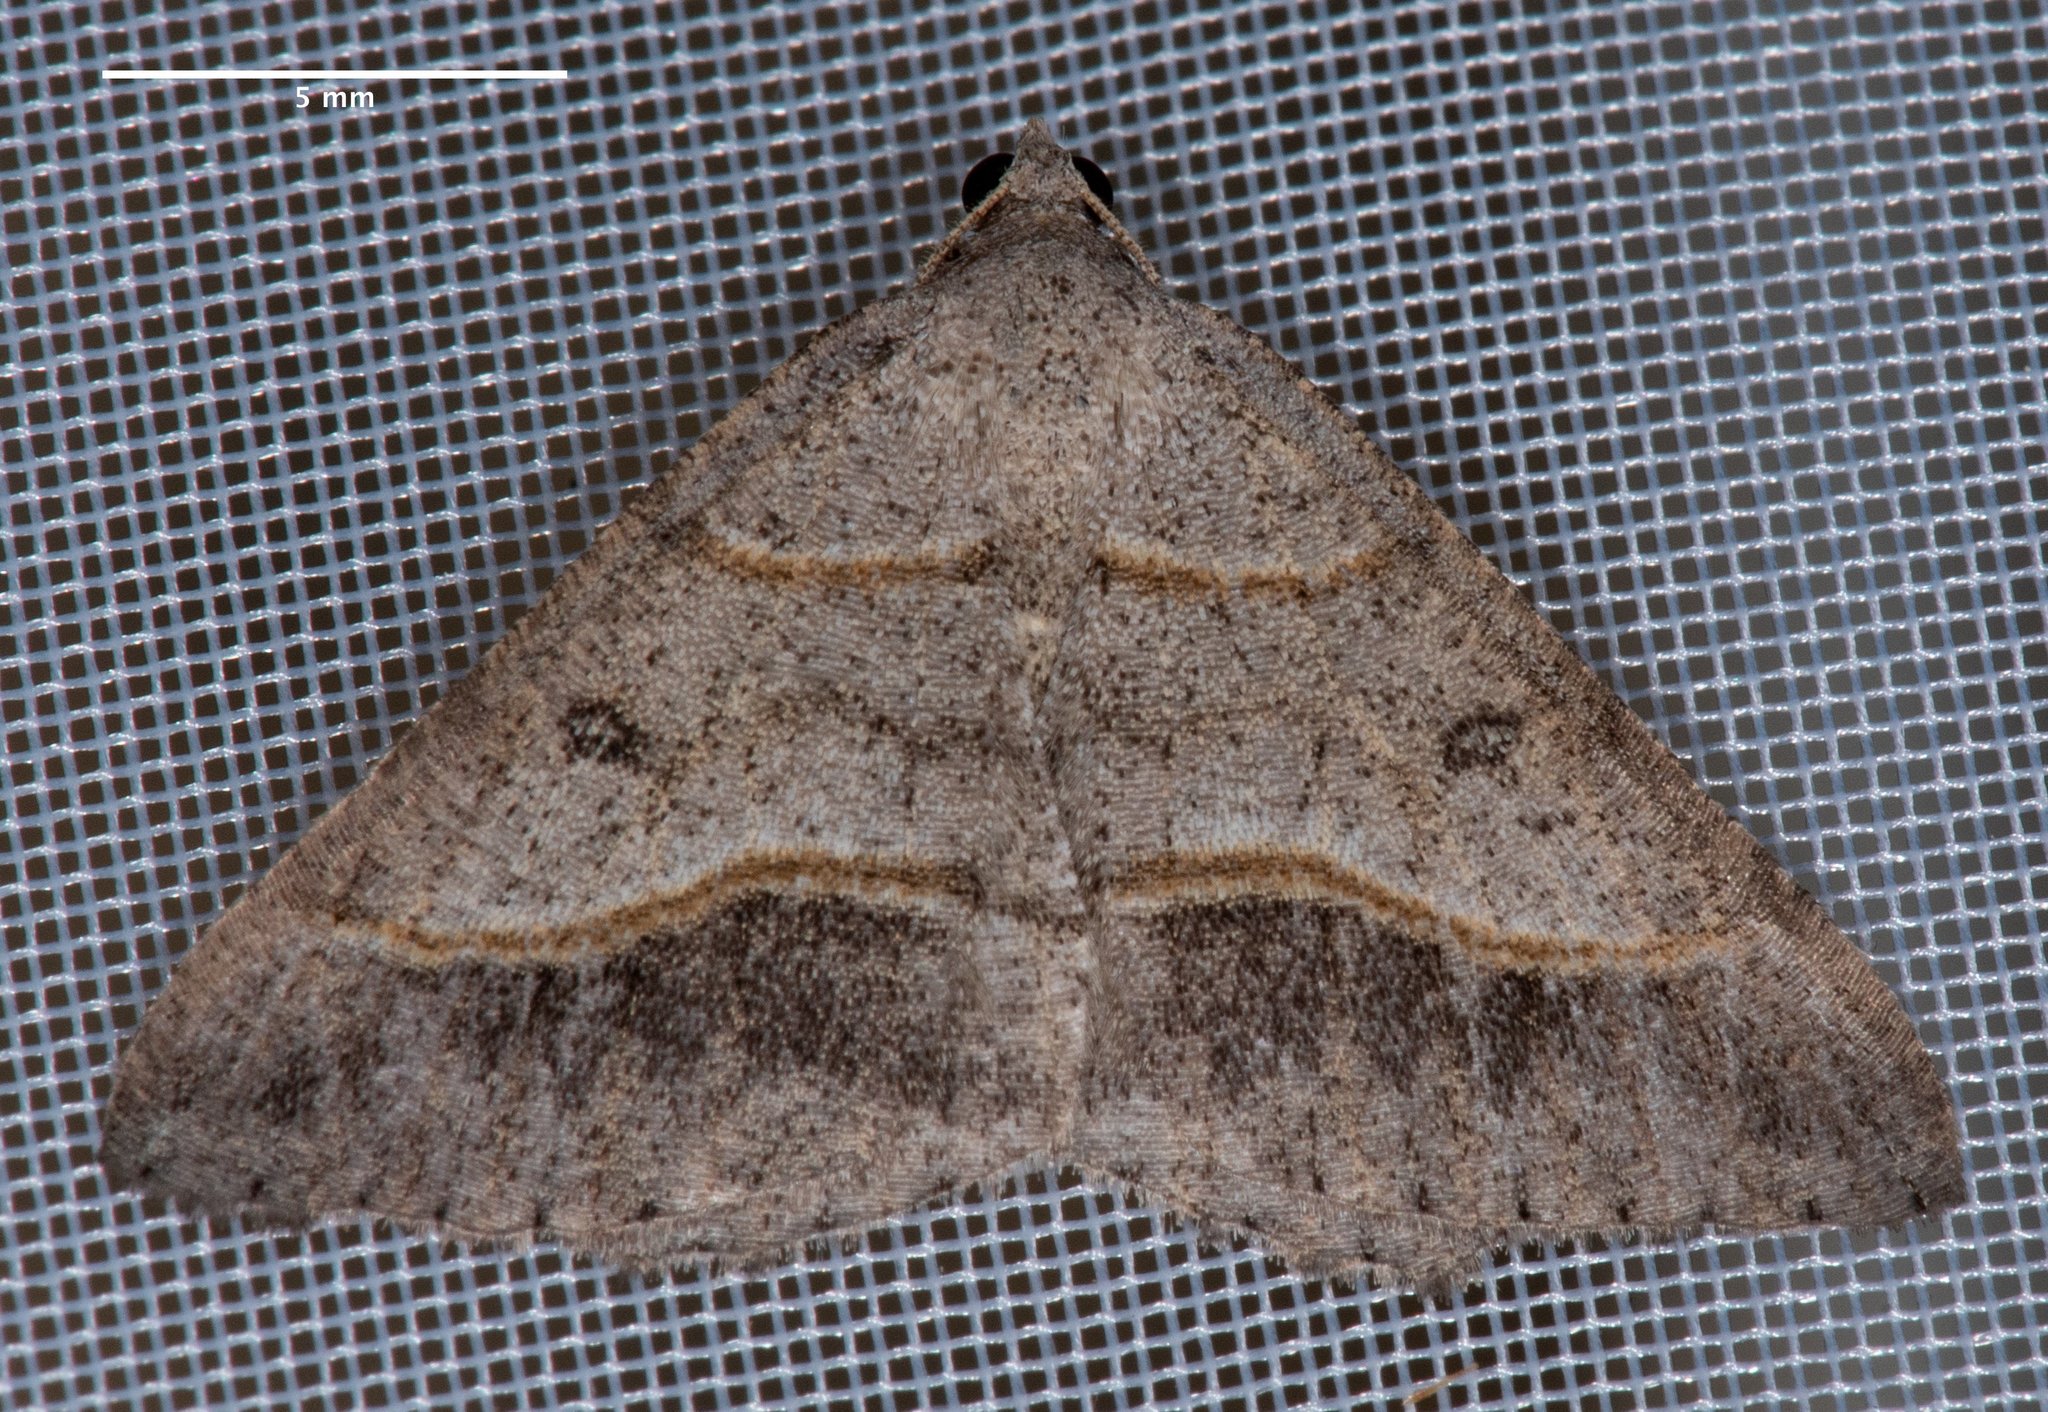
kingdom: Animalia
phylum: Arthropoda
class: Insecta
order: Lepidoptera
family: Geometridae
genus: Digrammia
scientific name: Digrammia neptaria
